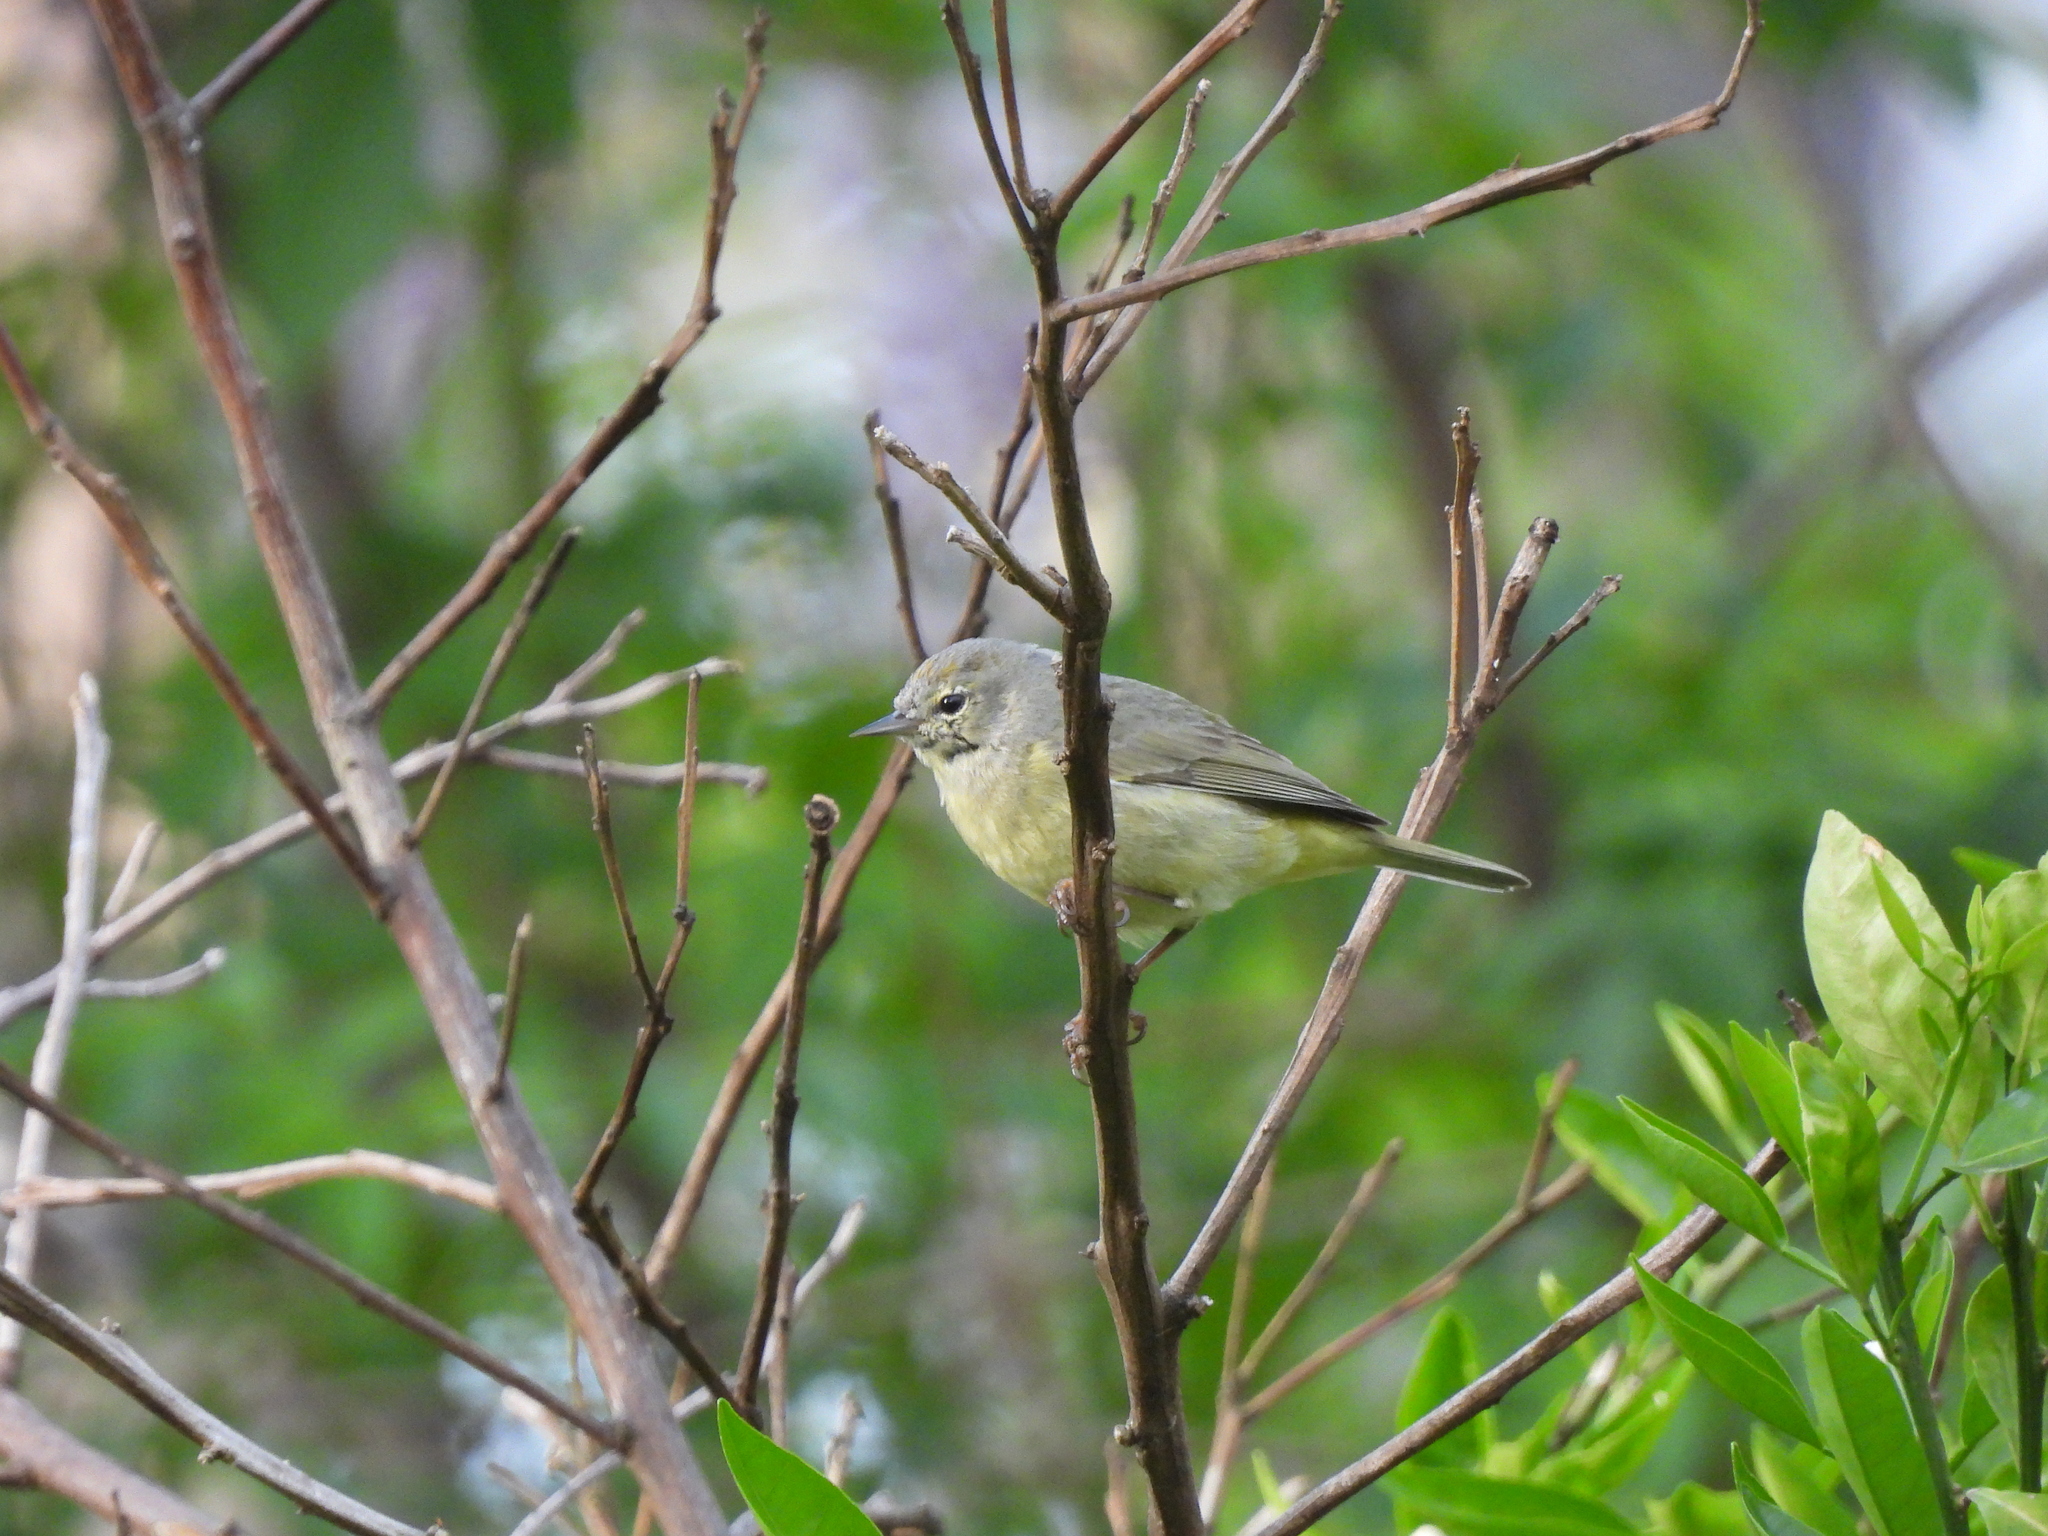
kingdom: Animalia
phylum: Chordata
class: Aves
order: Passeriformes
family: Parulidae
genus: Leiothlypis
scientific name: Leiothlypis celata
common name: Orange-crowned warbler
